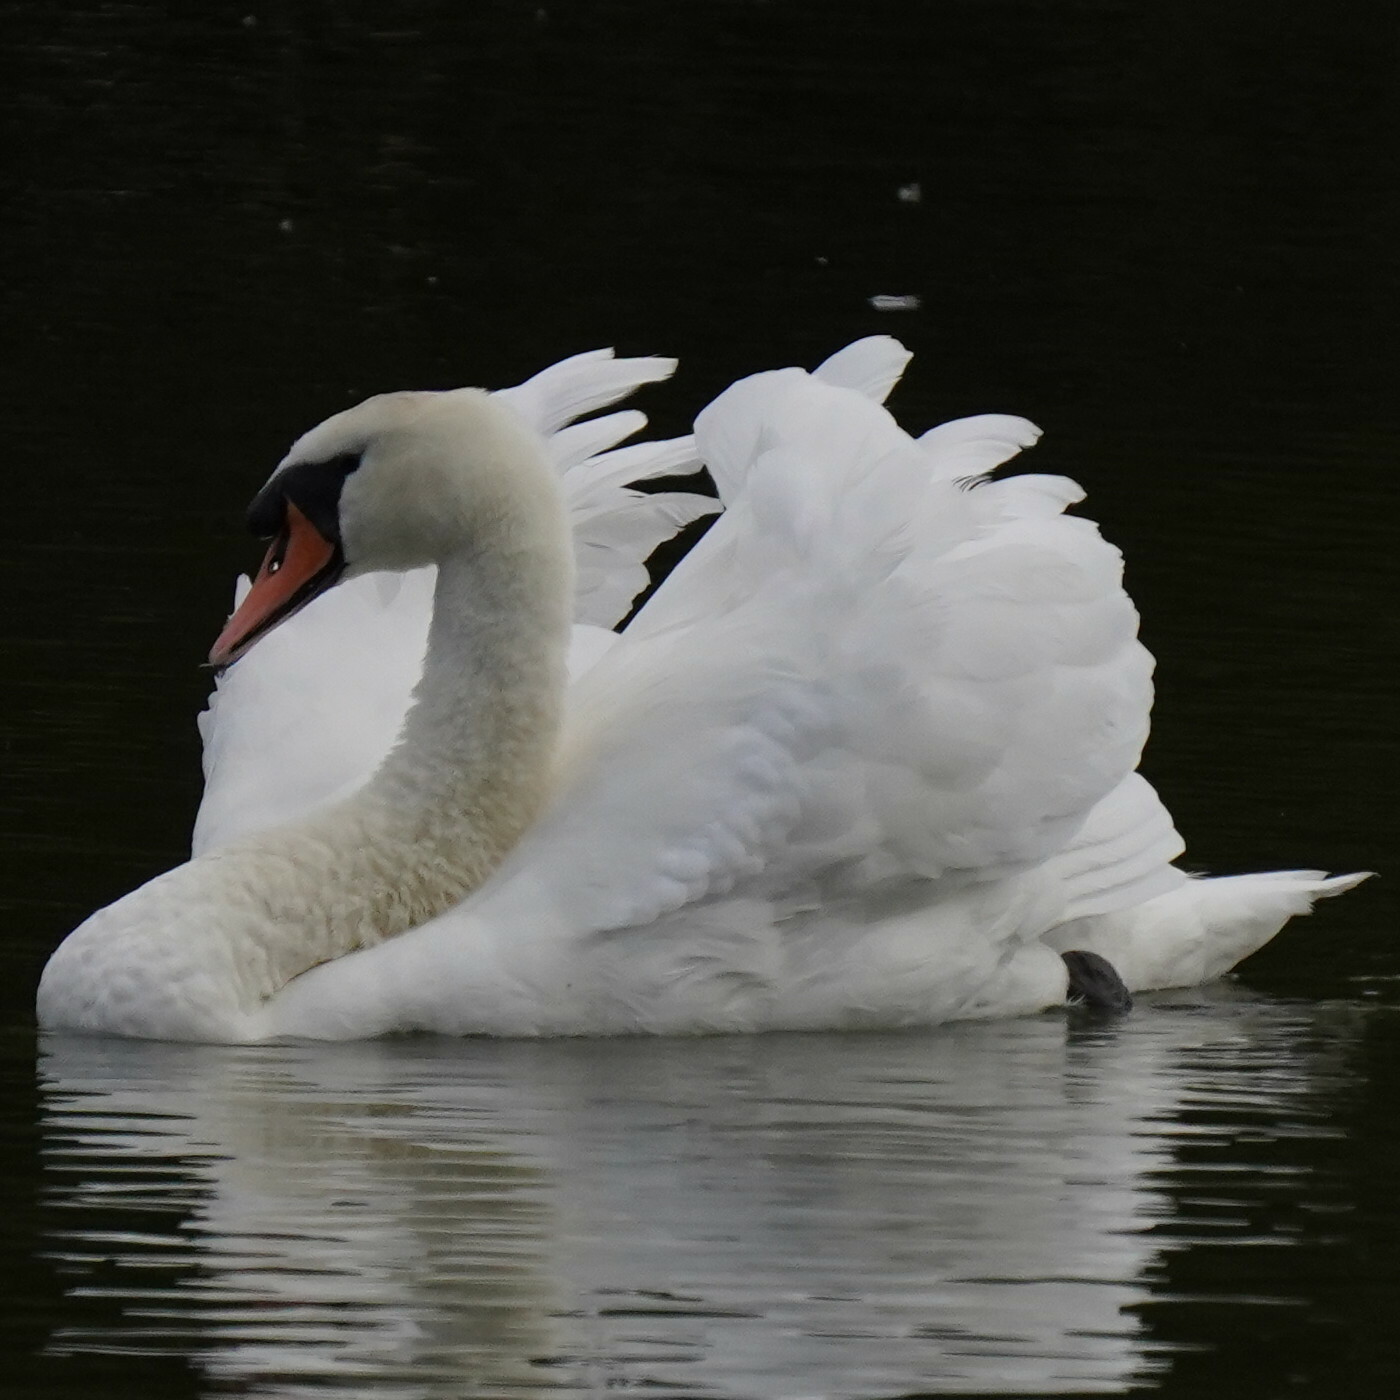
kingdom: Animalia
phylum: Chordata
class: Aves
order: Anseriformes
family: Anatidae
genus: Cygnus
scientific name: Cygnus olor
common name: Mute swan
